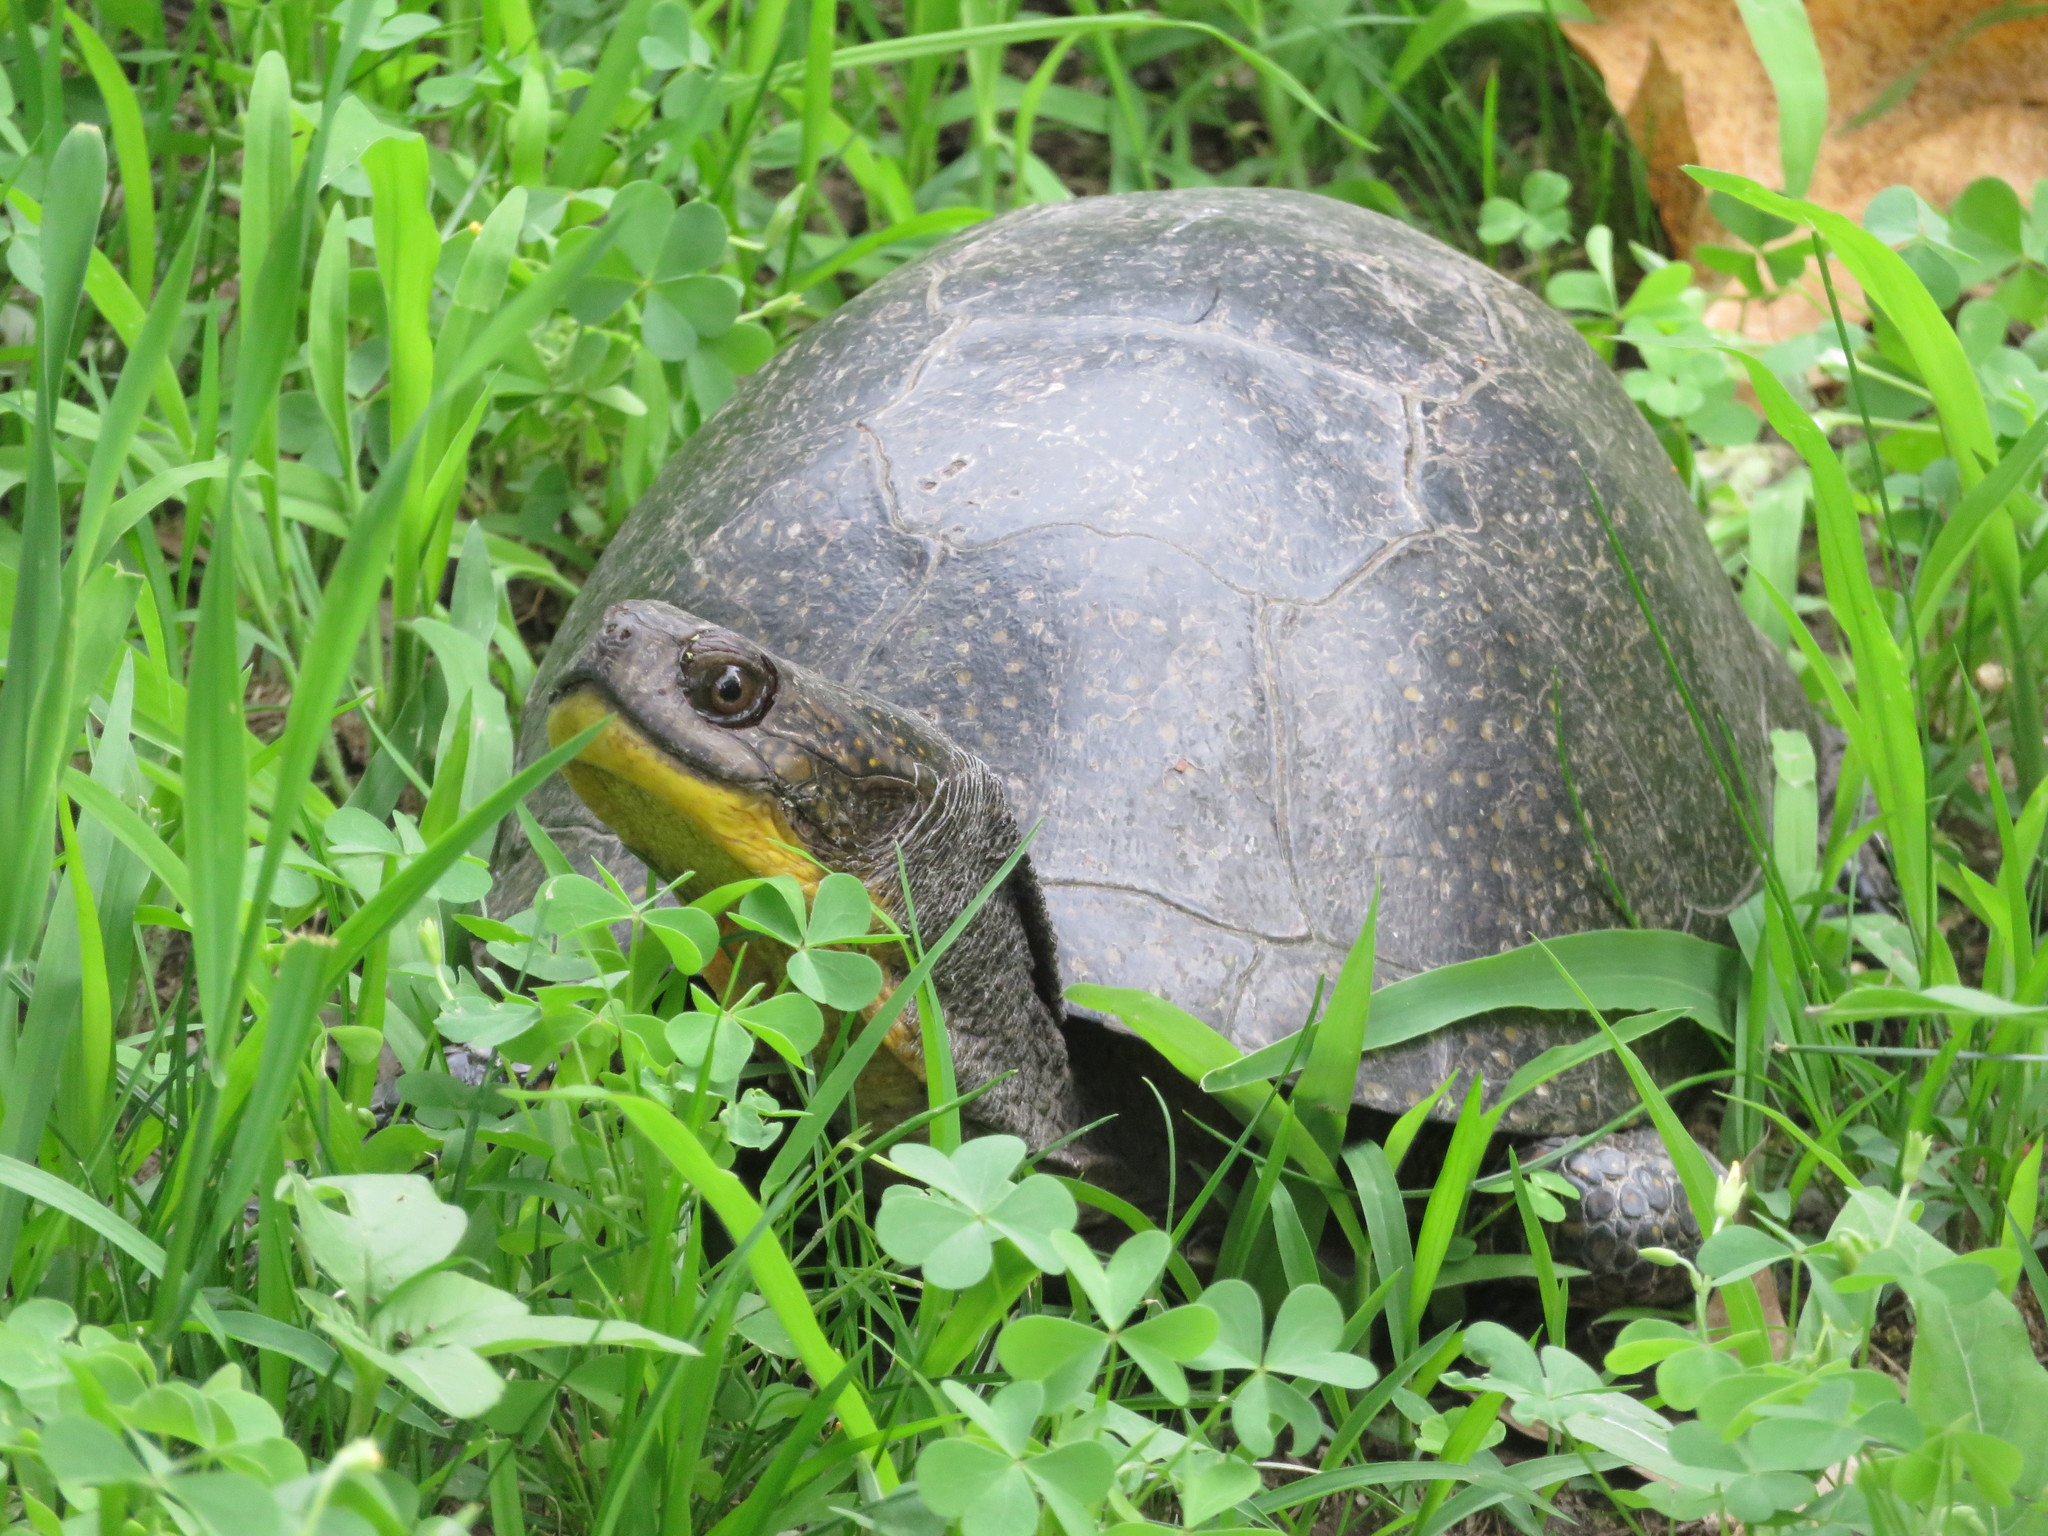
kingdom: Animalia
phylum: Chordata
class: Testudines
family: Emydidae
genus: Emys
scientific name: Emys blandingii
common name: Blanding's turtle
